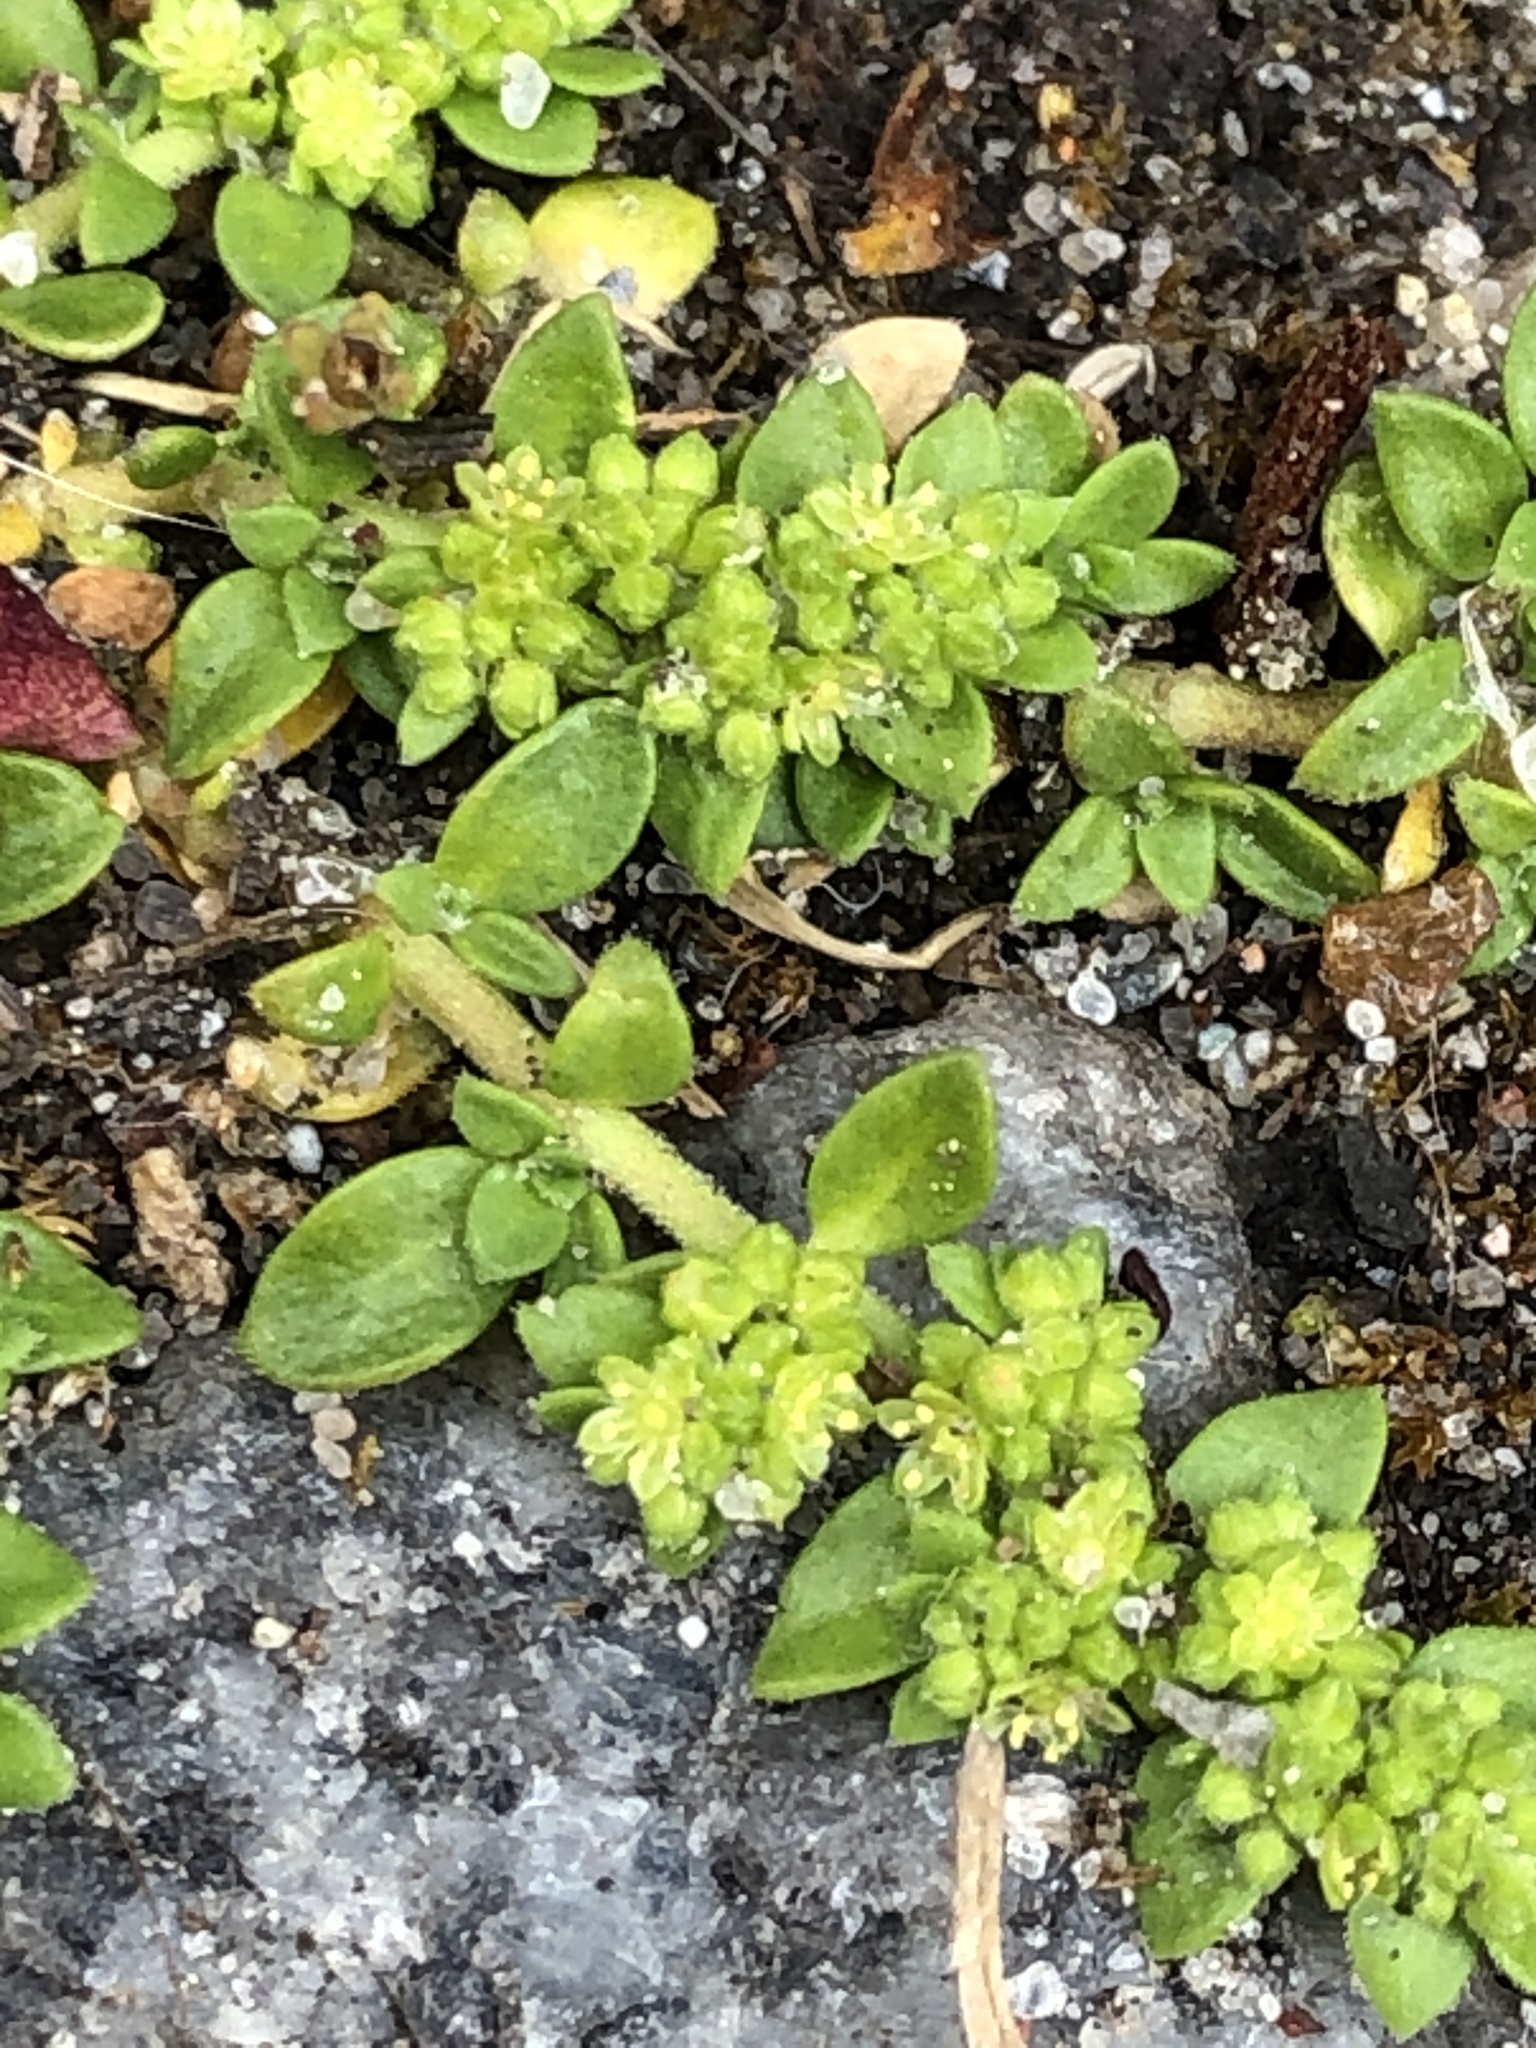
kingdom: Plantae
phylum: Tracheophyta
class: Magnoliopsida
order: Caryophyllales
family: Caryophyllaceae
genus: Herniaria
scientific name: Herniaria glabra
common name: Smooth rupturewort
